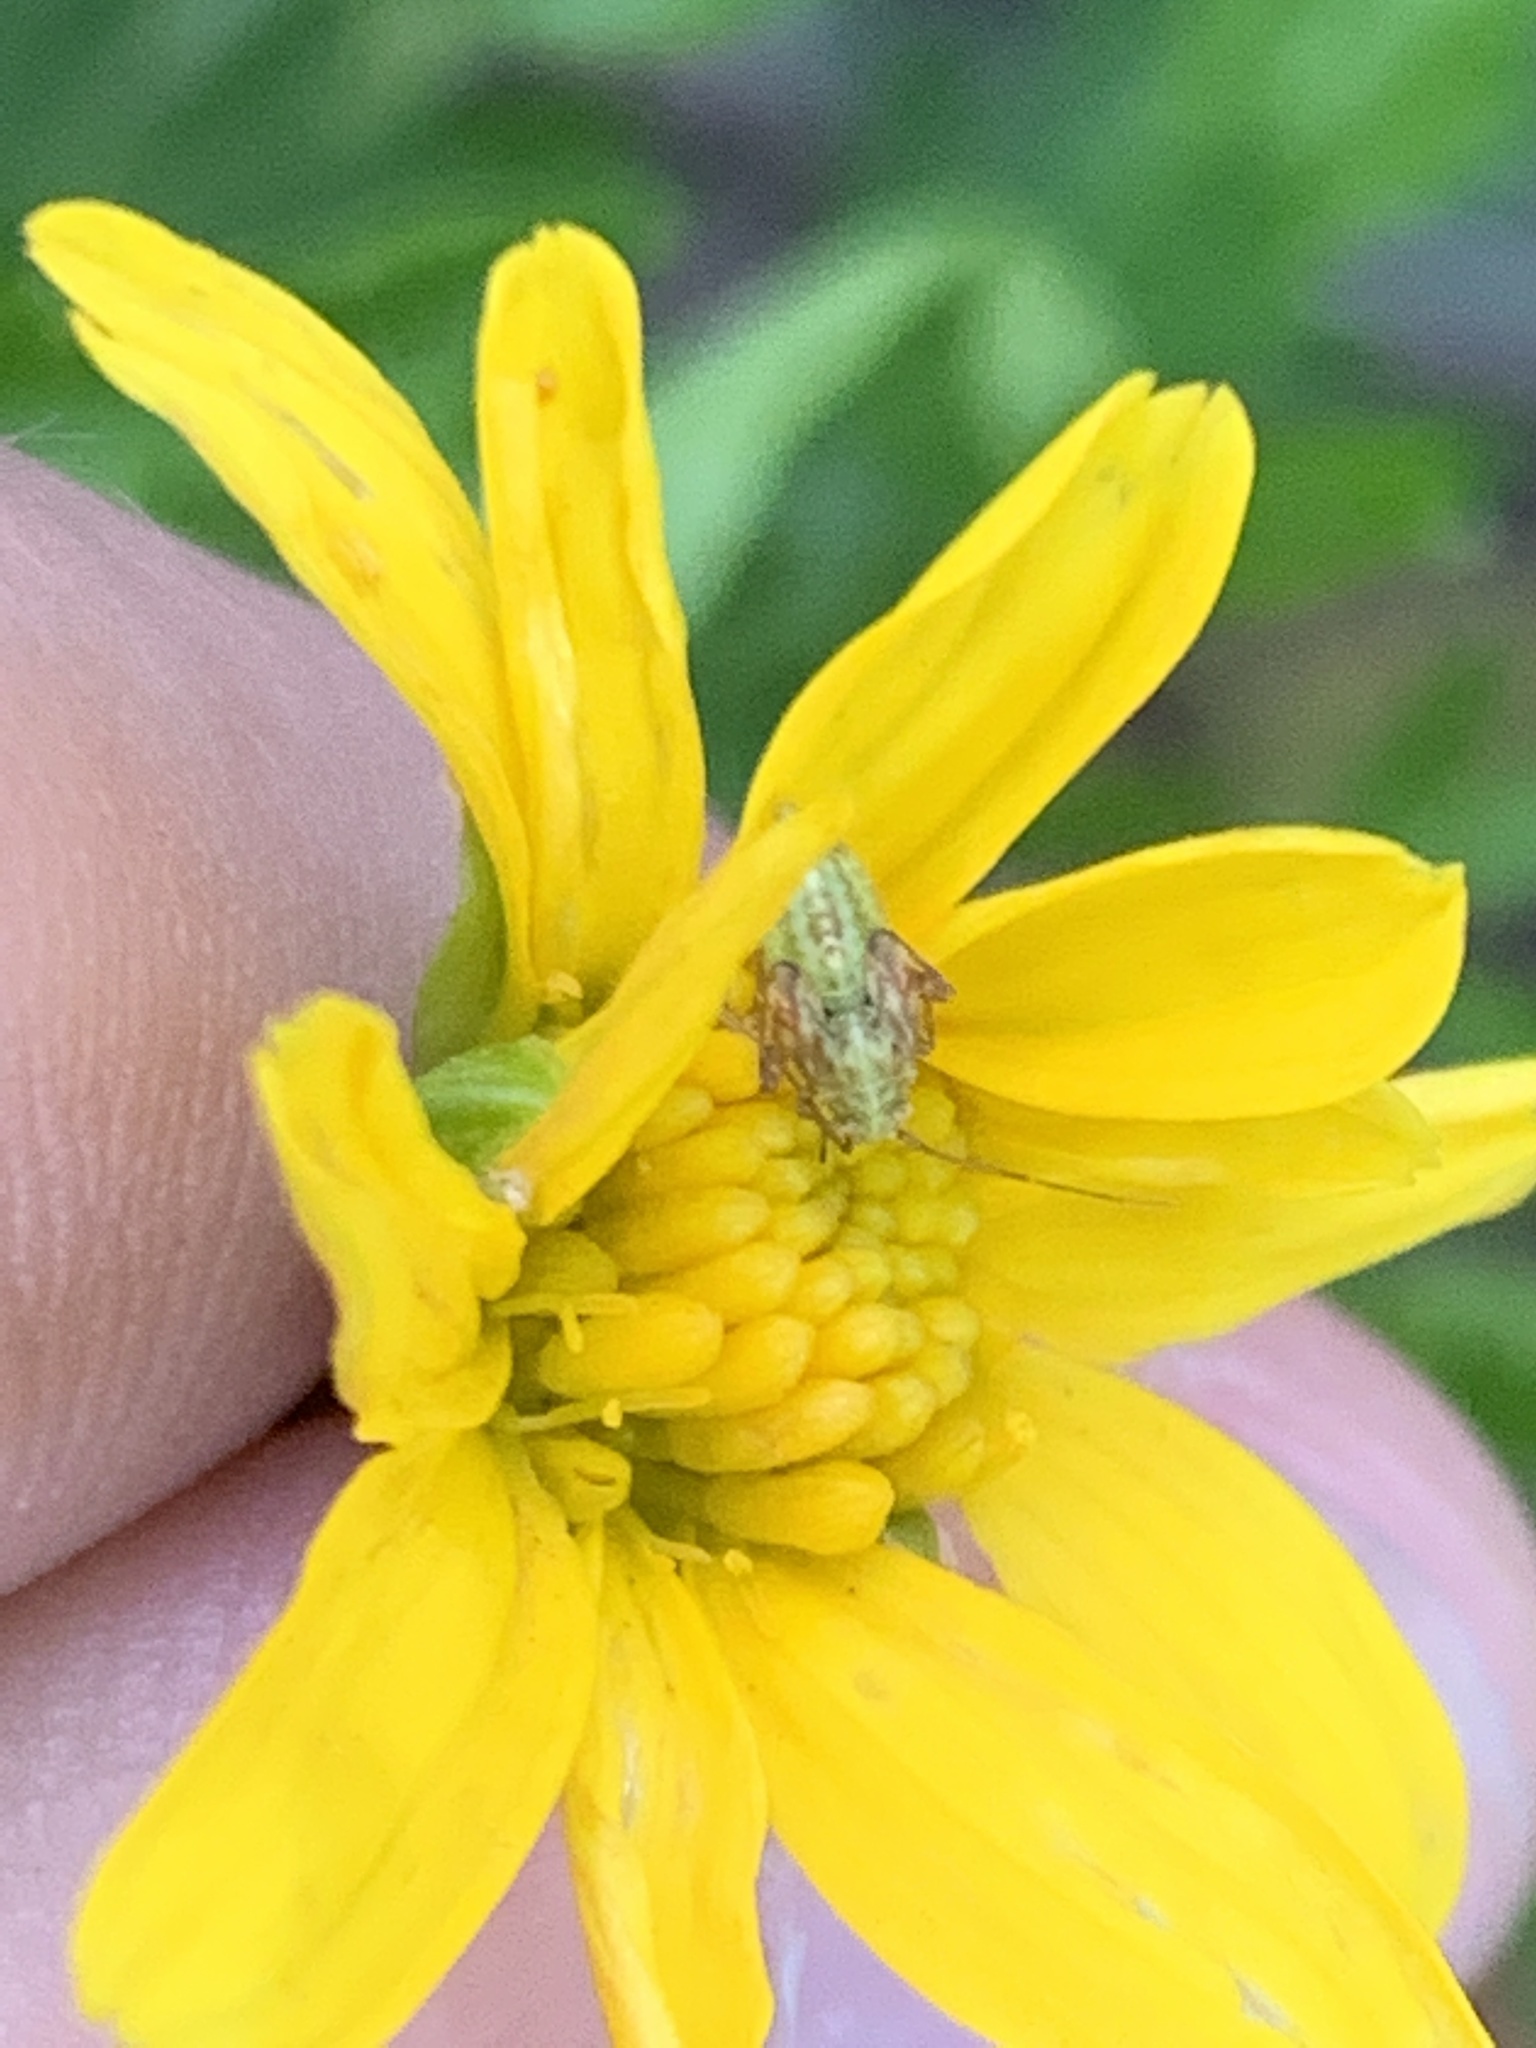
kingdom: Animalia
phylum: Arthropoda
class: Insecta
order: Hemiptera
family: Miridae
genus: Taylorilygus
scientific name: Taylorilygus apicalis
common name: Plant bug
